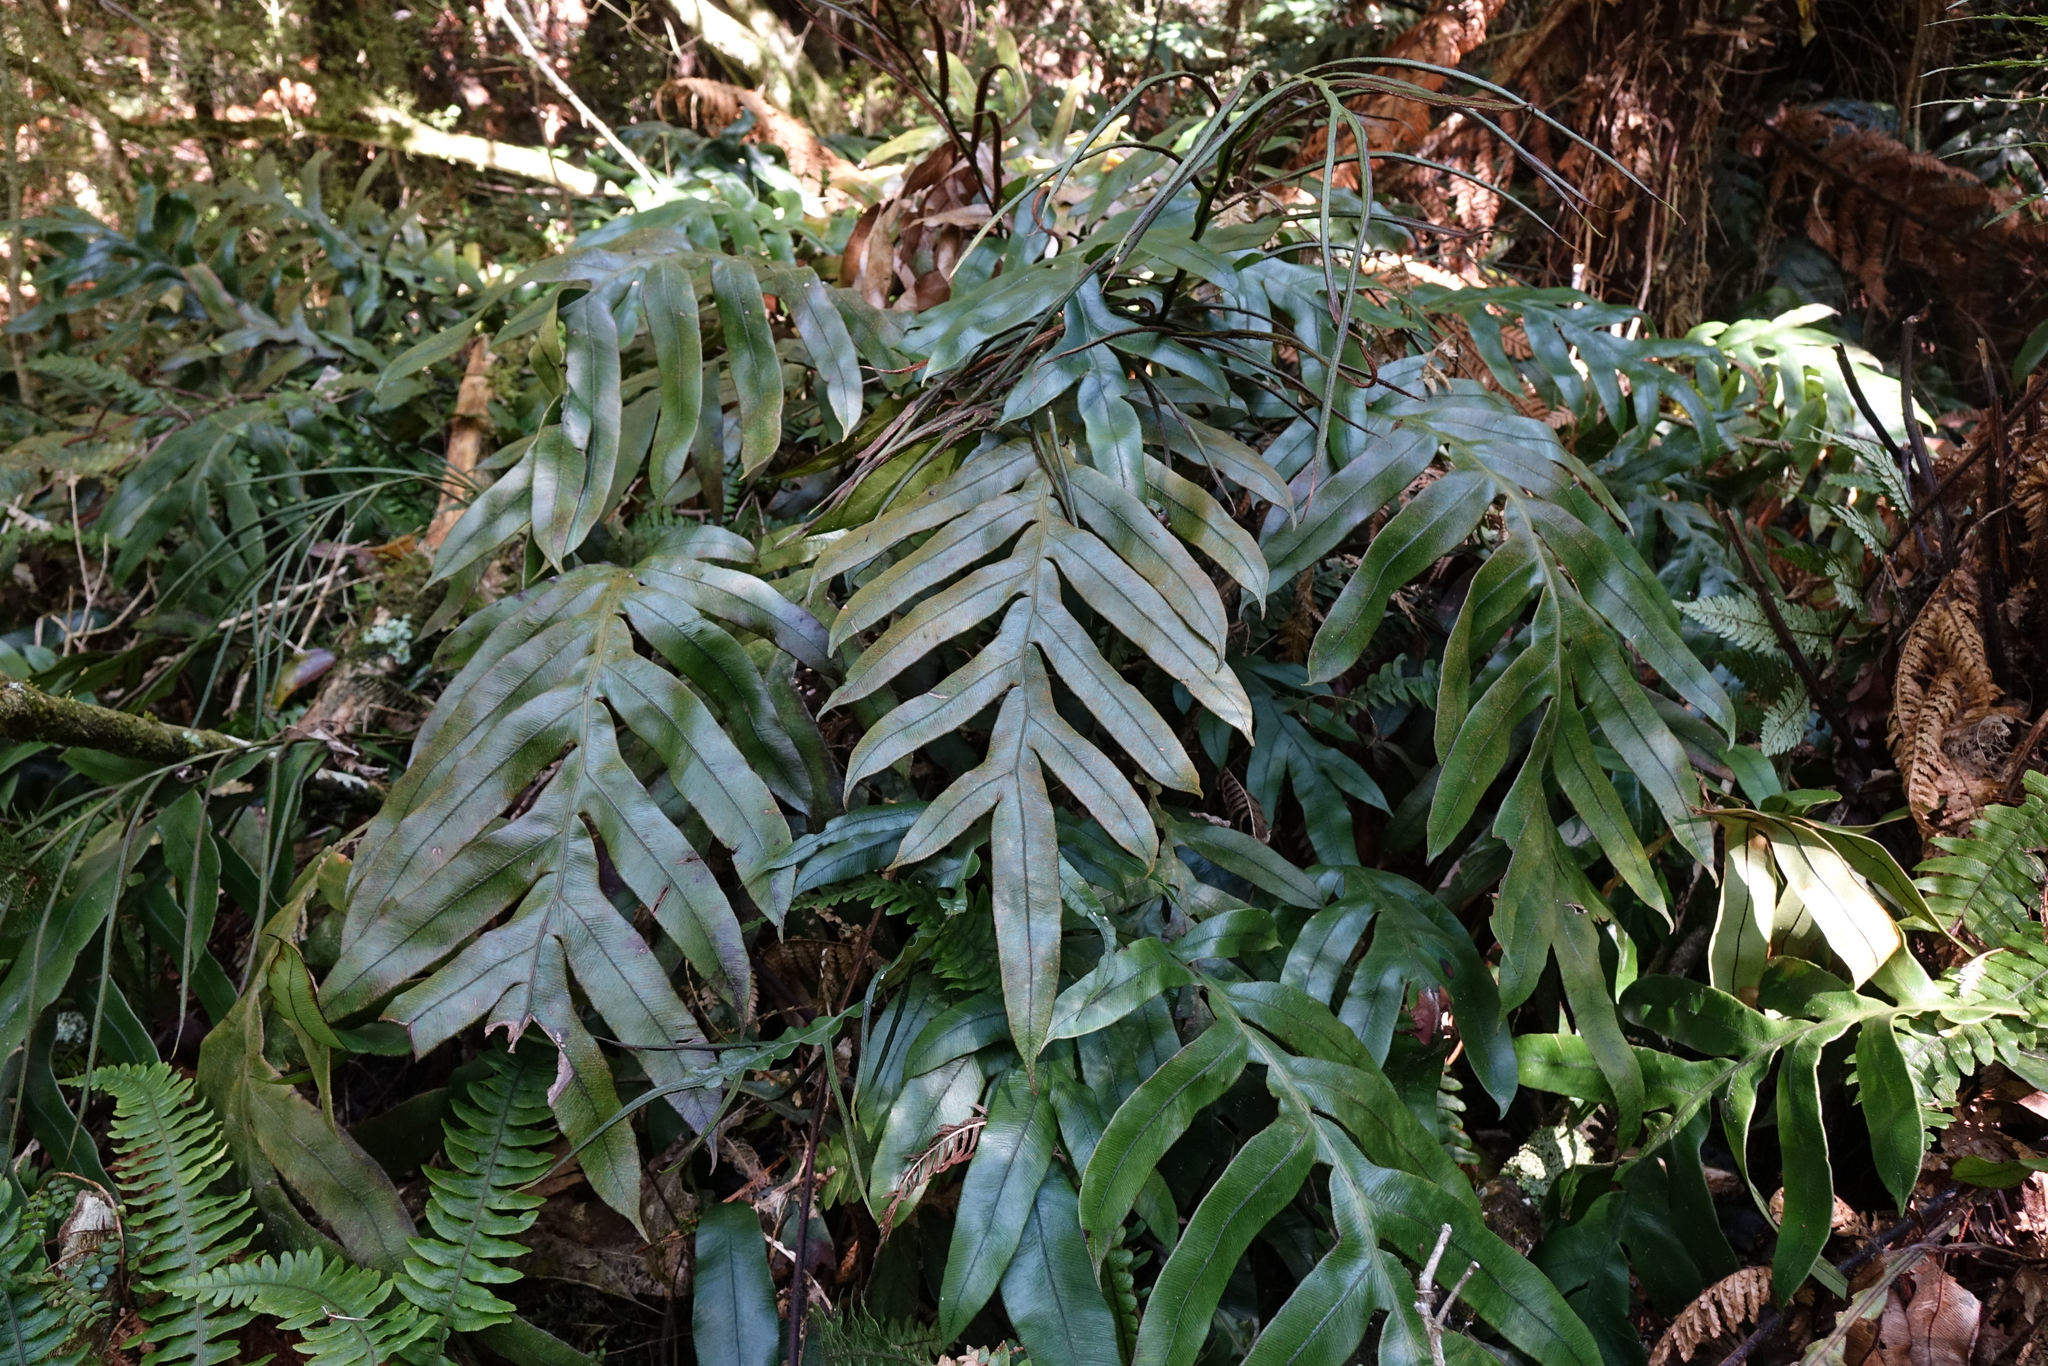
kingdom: Plantae
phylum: Tracheophyta
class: Polypodiopsida
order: Polypodiales
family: Blechnaceae
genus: Austroblechnum
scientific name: Austroblechnum colensoi
